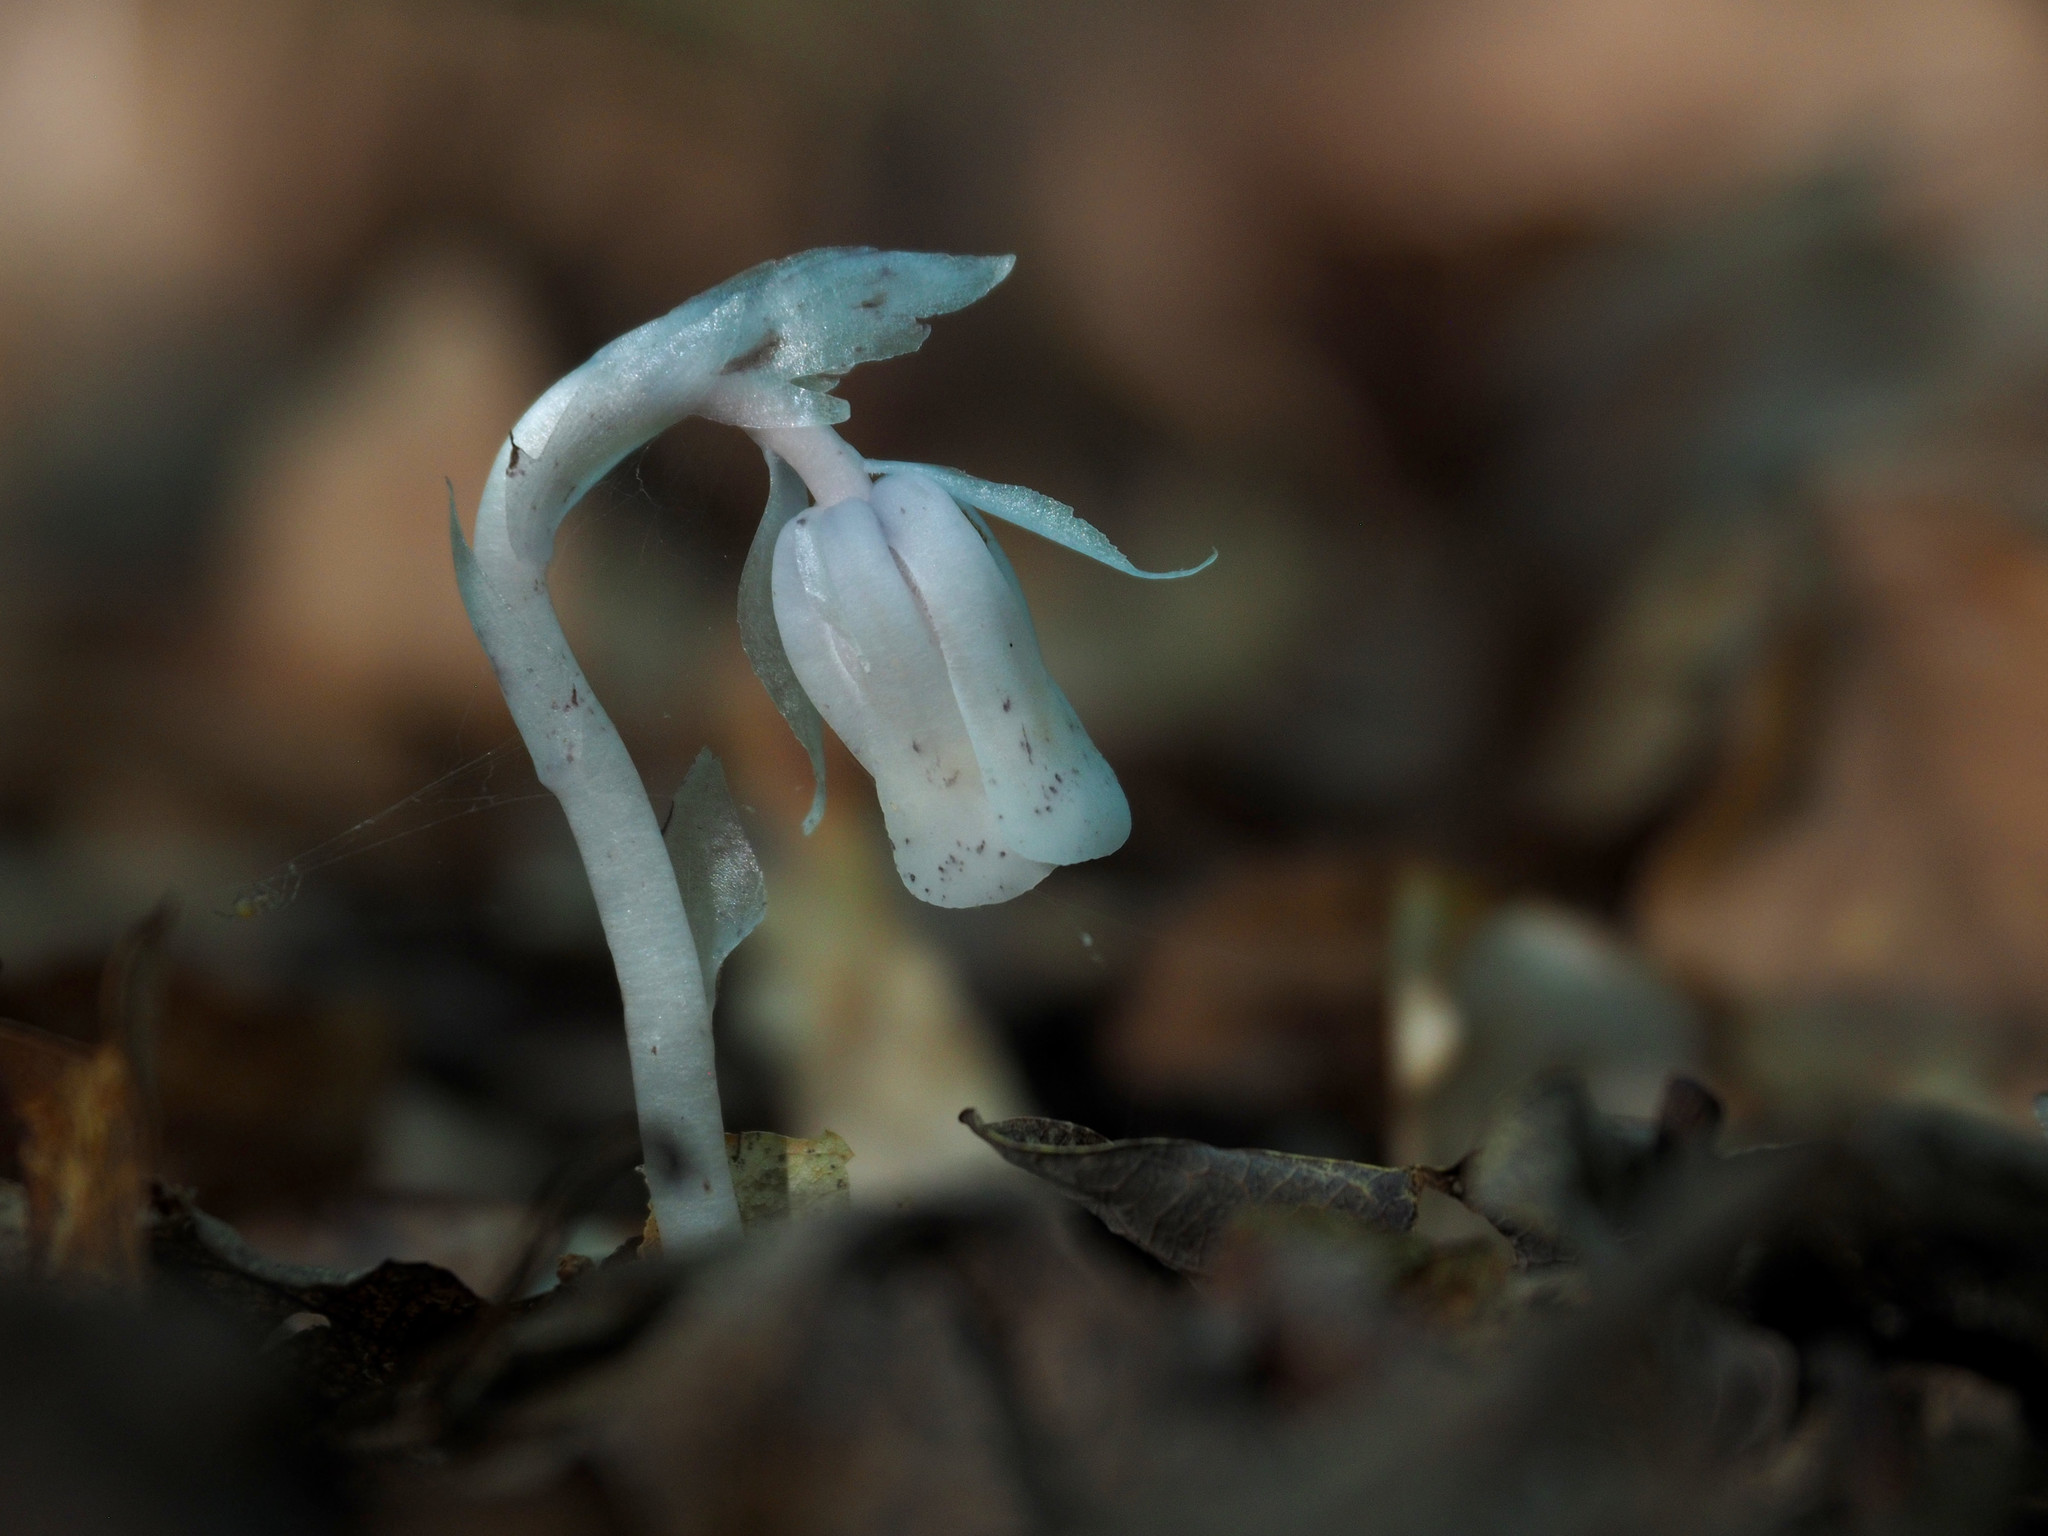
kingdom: Plantae
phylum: Tracheophyta
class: Magnoliopsida
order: Ericales
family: Ericaceae
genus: Monotropa
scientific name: Monotropa uniflora
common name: Convulsion root
